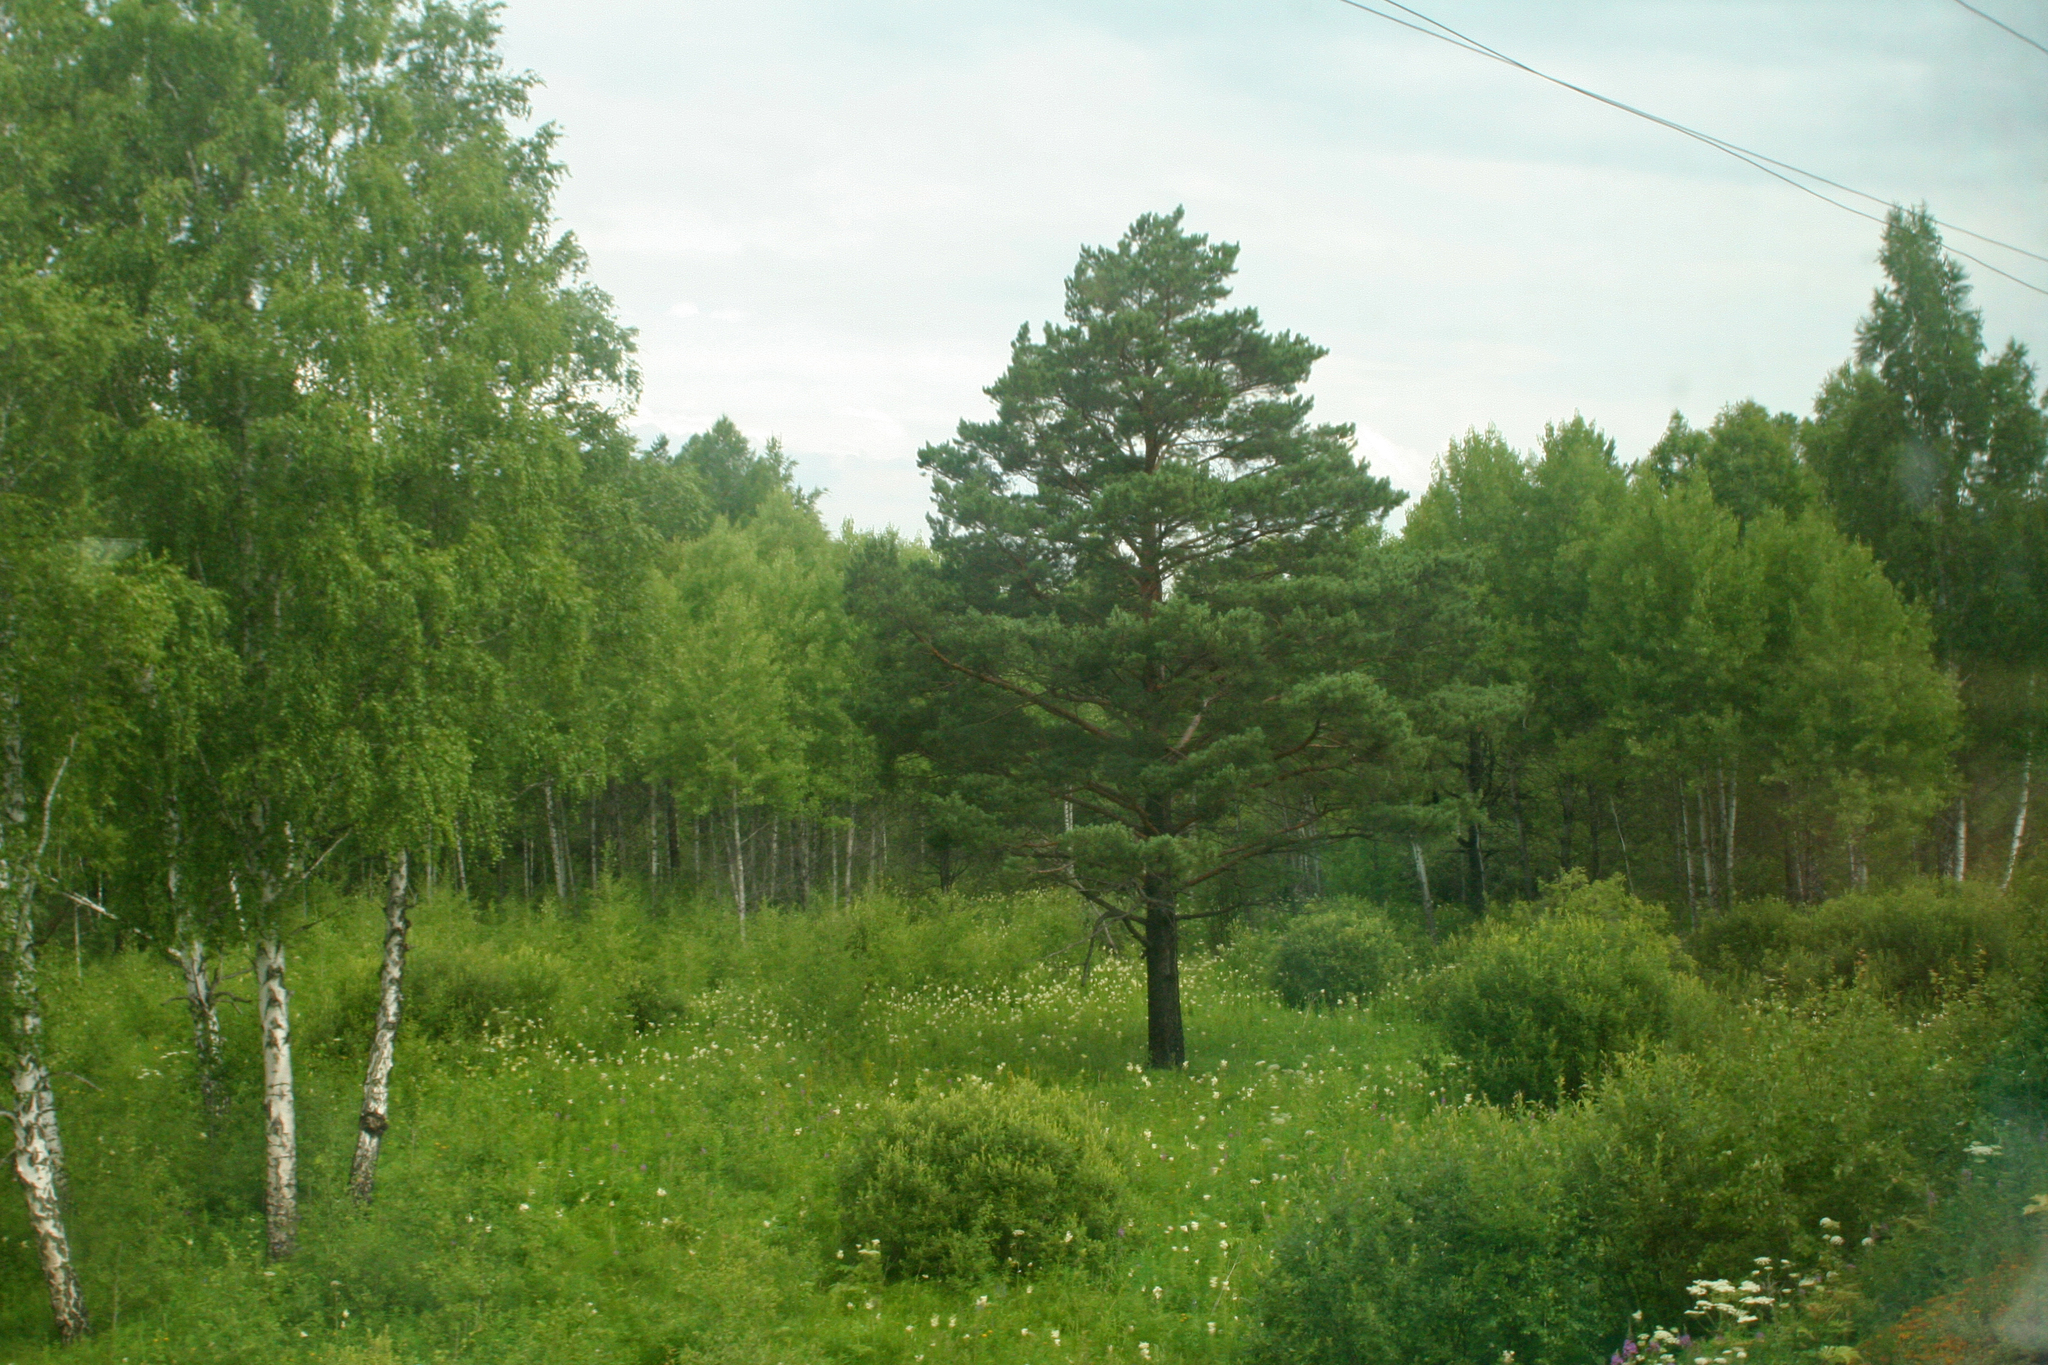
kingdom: Plantae
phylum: Tracheophyta
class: Pinopsida
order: Pinales
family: Pinaceae
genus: Pinus
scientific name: Pinus sylvestris
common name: Scots pine
